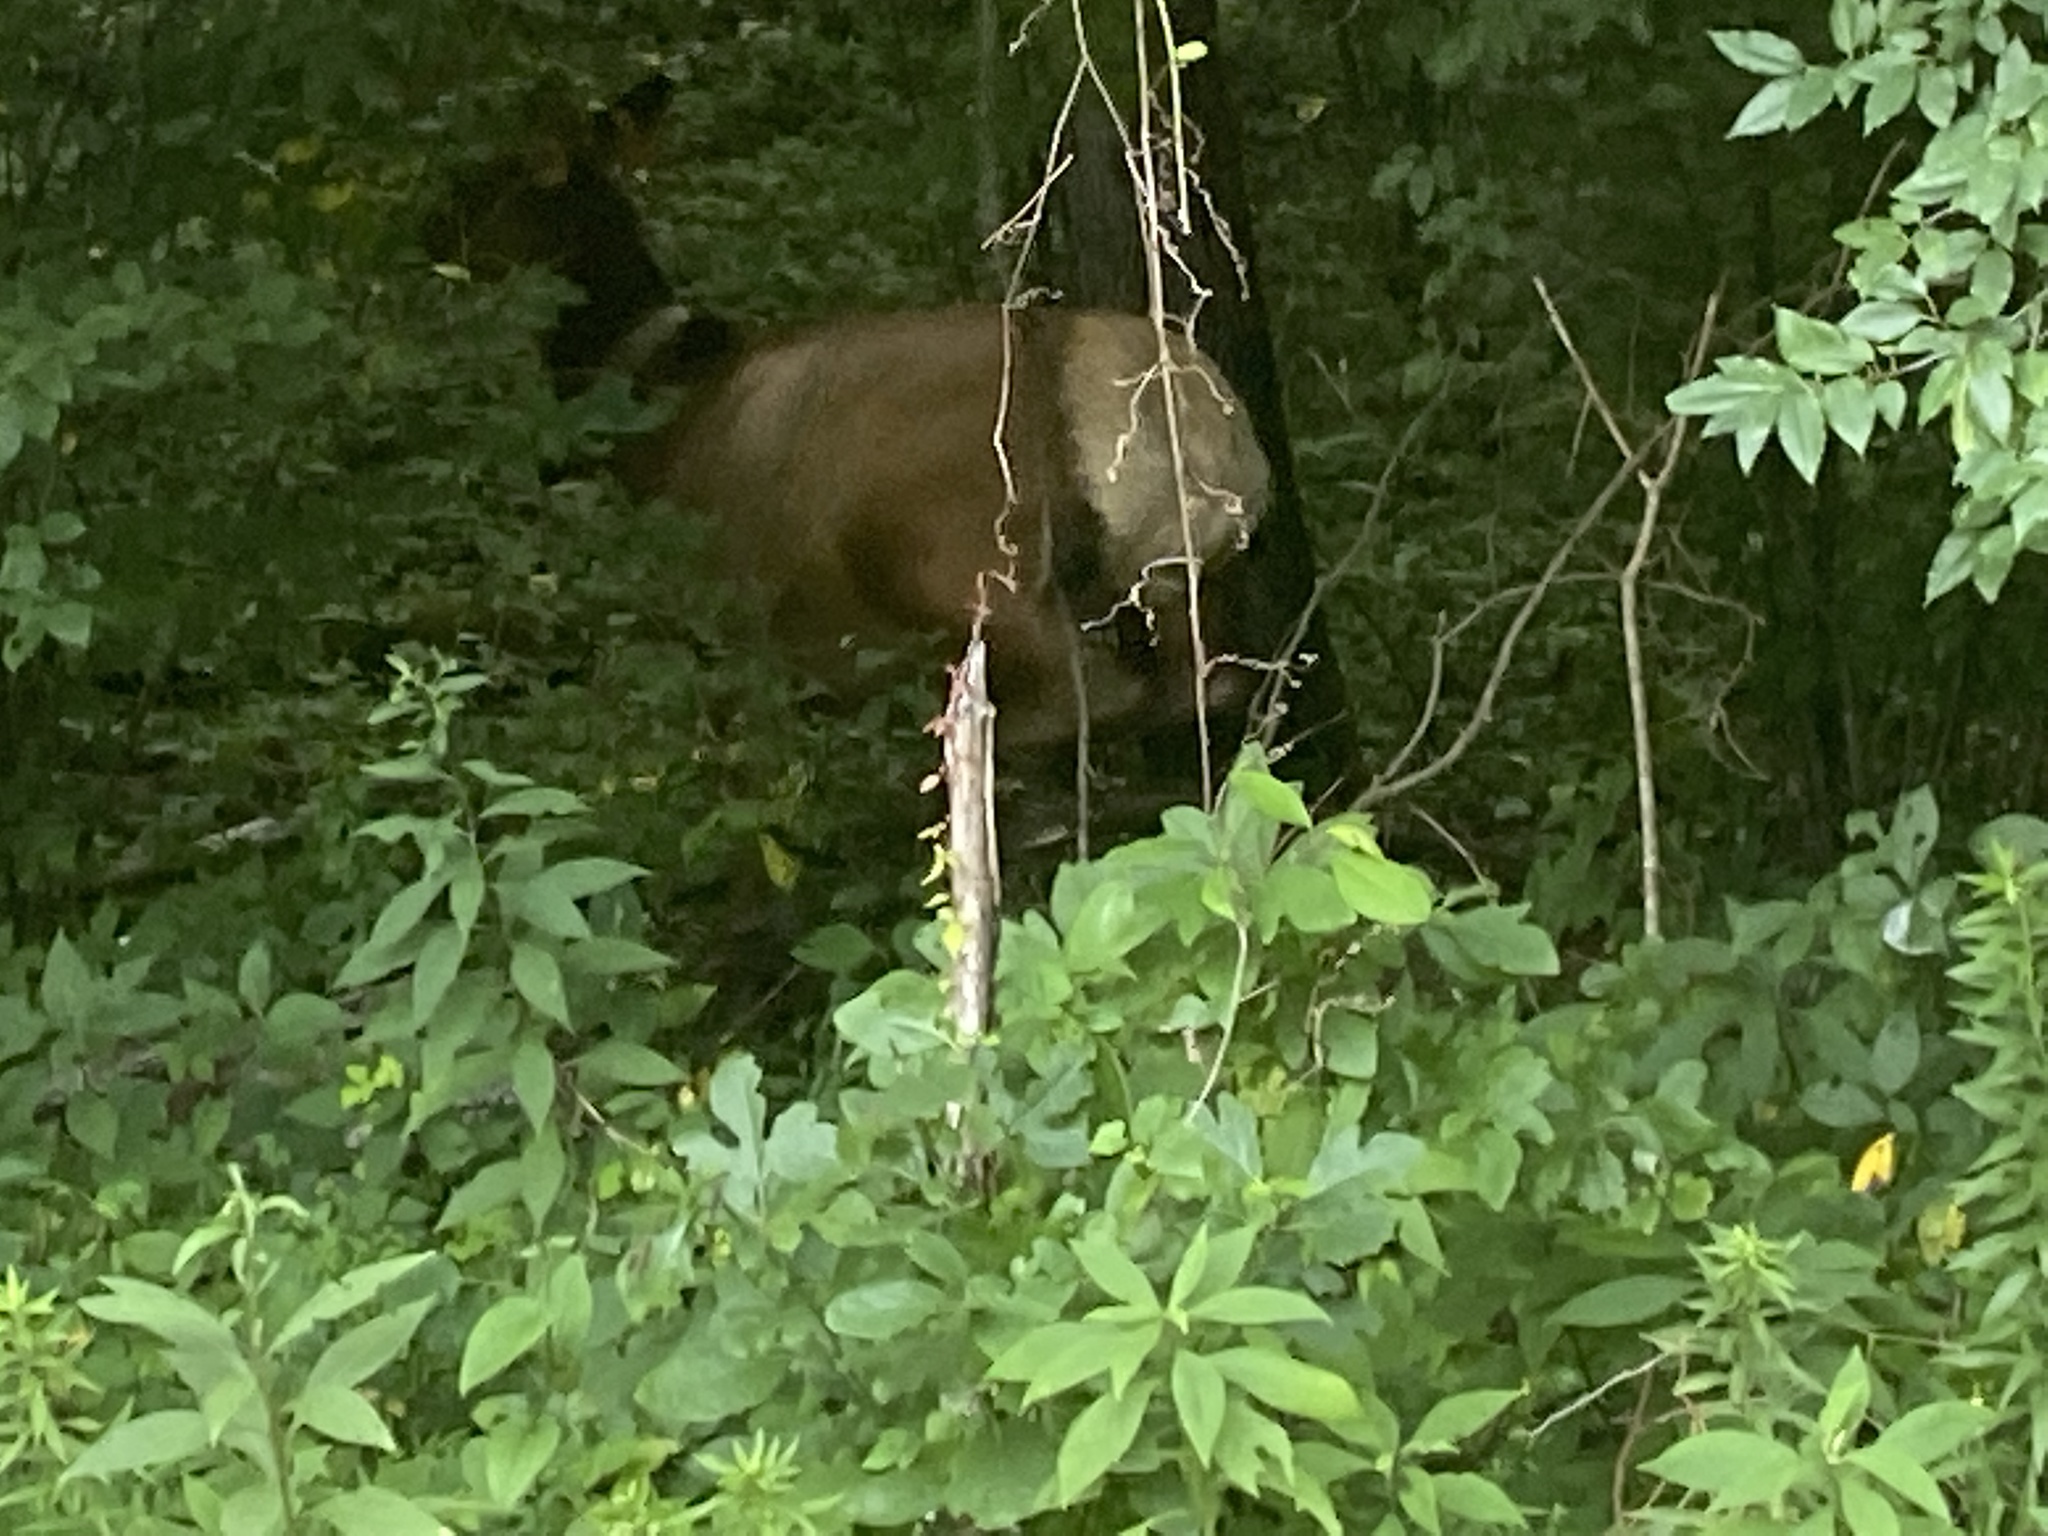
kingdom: Animalia
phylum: Chordata
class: Mammalia
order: Artiodactyla
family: Cervidae
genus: Cervus
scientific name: Cervus elaphus
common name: Red deer
